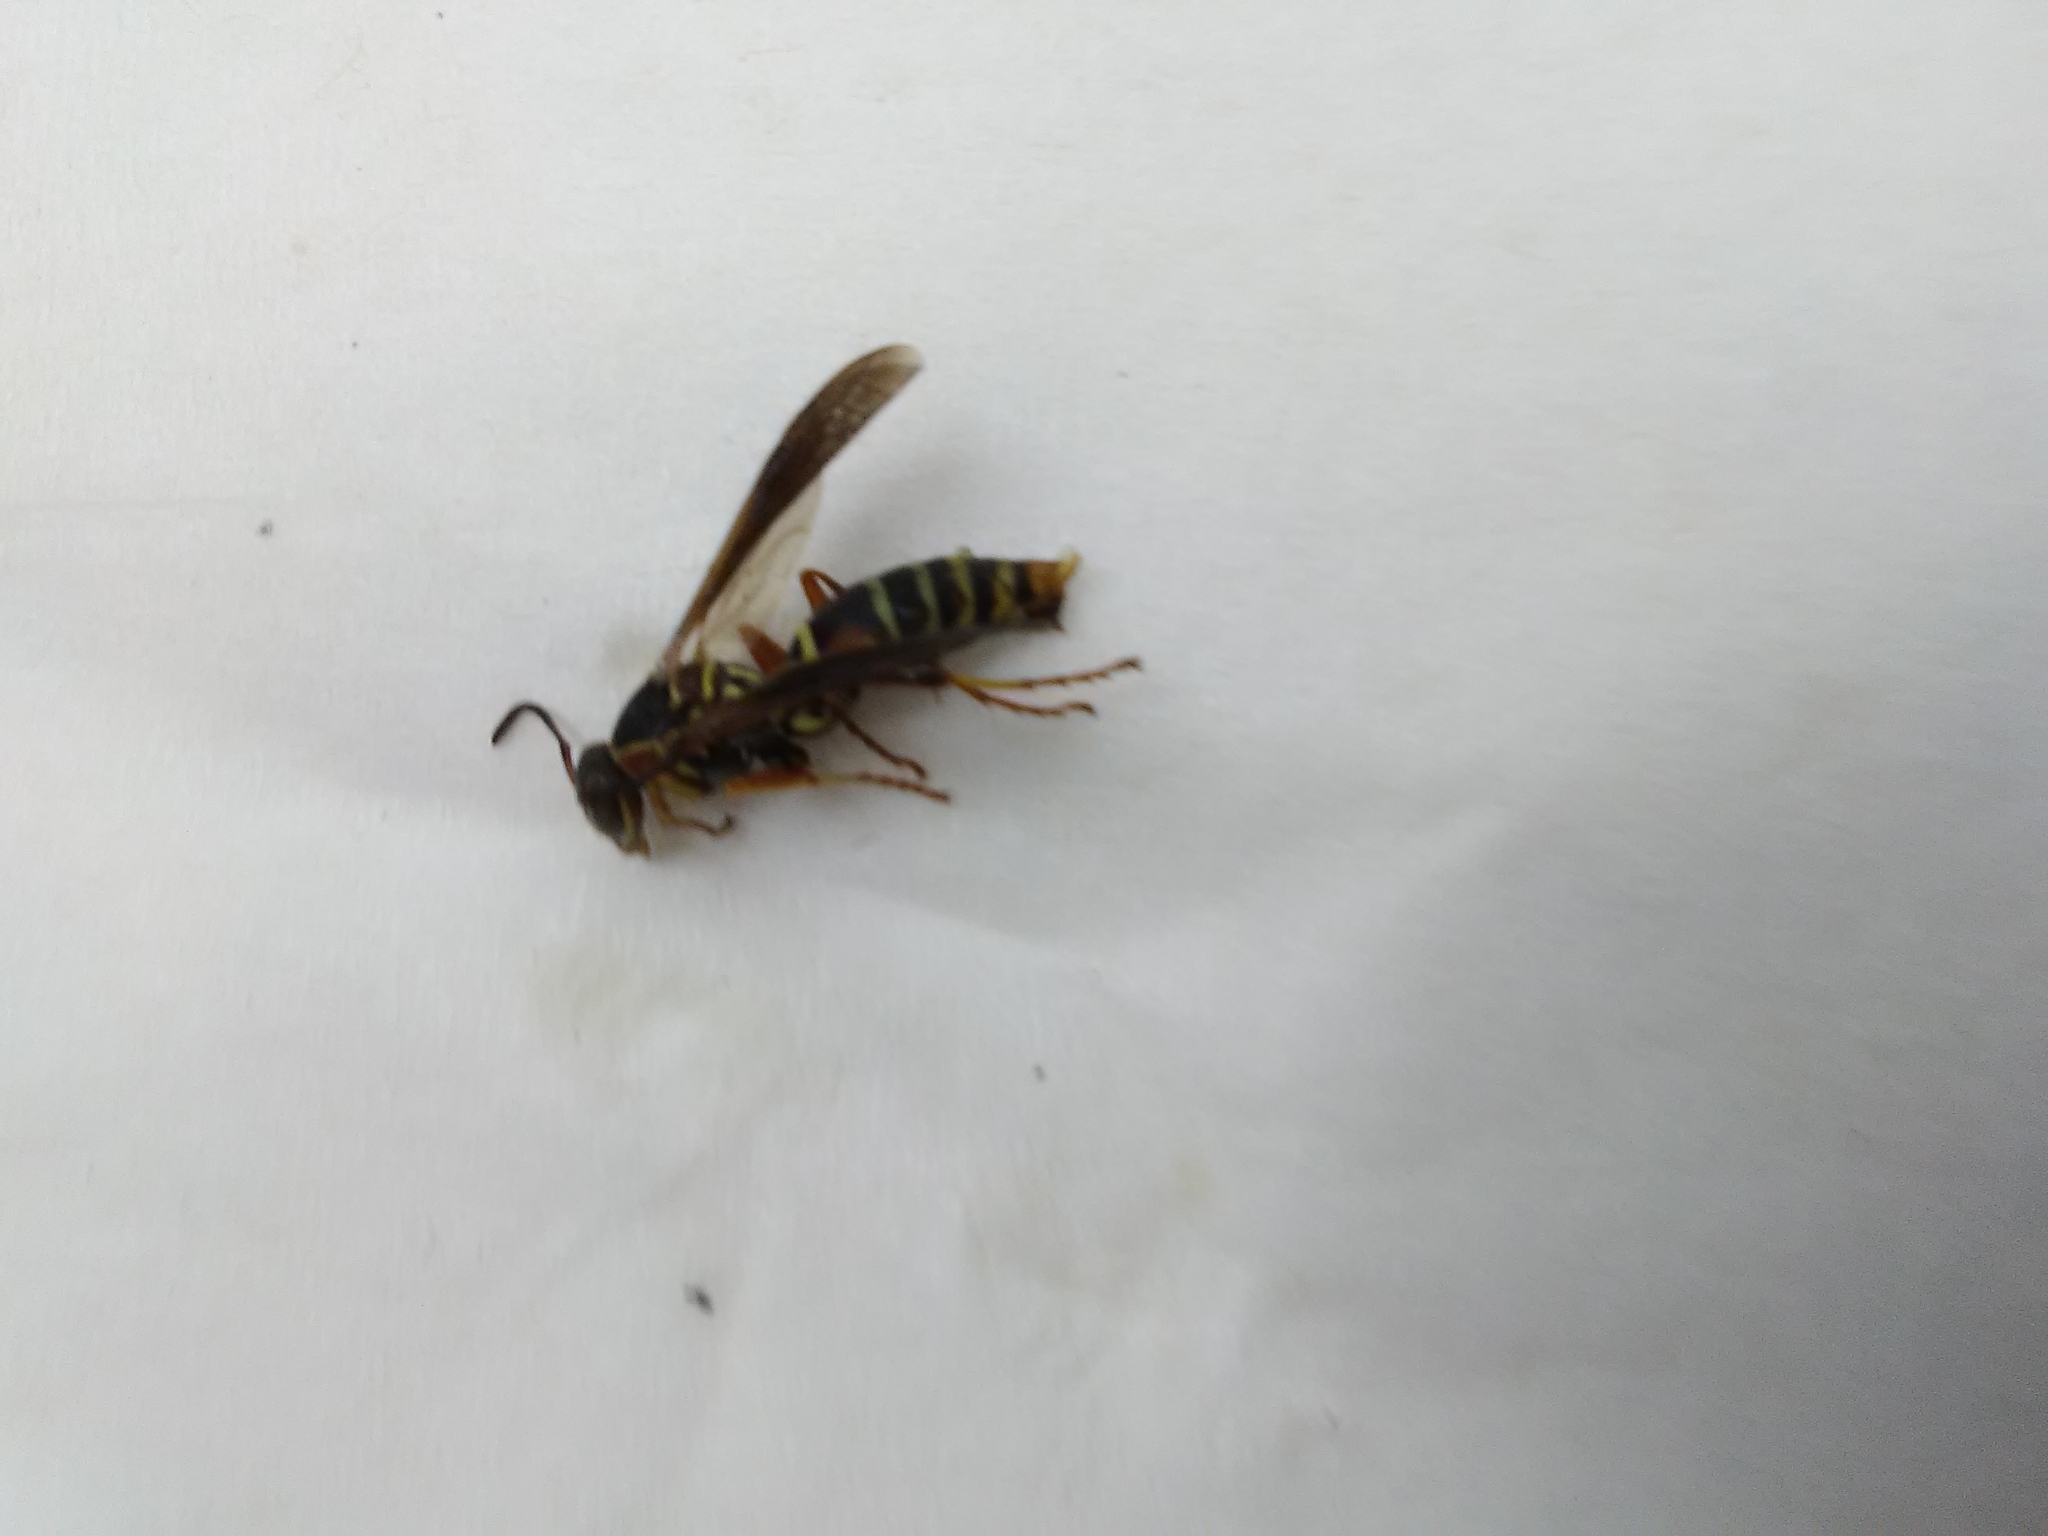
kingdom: Animalia
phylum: Arthropoda
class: Insecta
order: Hymenoptera
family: Eumenidae
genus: Polistes
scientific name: Polistes fuscatus
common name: Dark paper wasp
